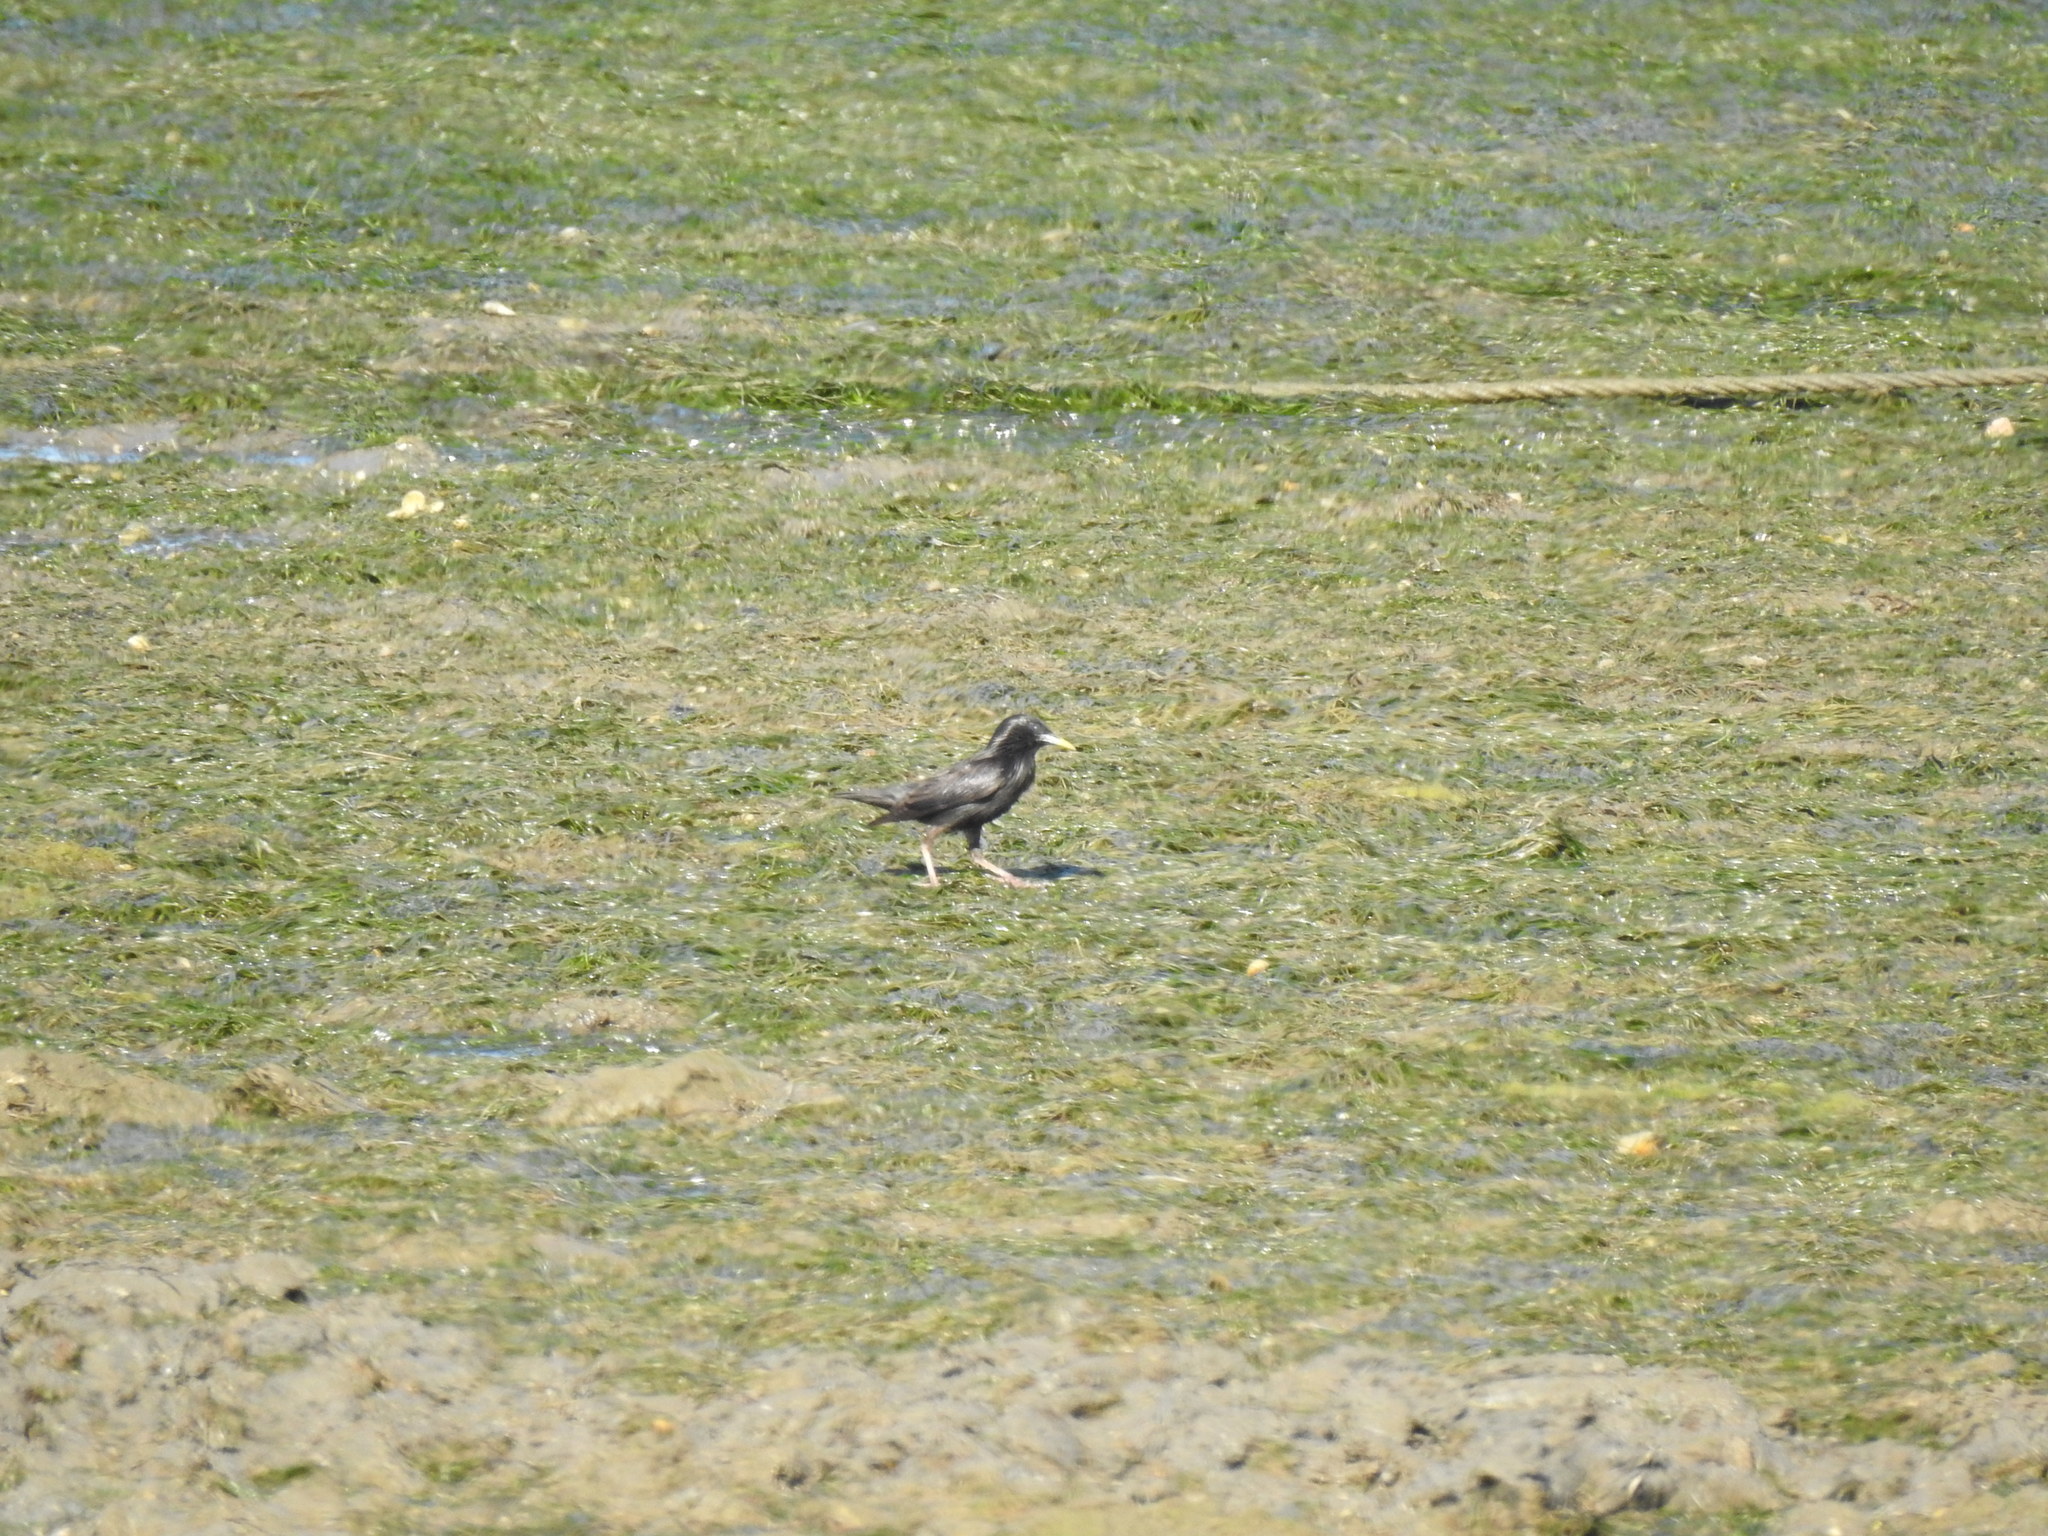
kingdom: Animalia
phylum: Chordata
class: Aves
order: Passeriformes
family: Sturnidae
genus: Sturnus
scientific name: Sturnus unicolor
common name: Spotless starling
